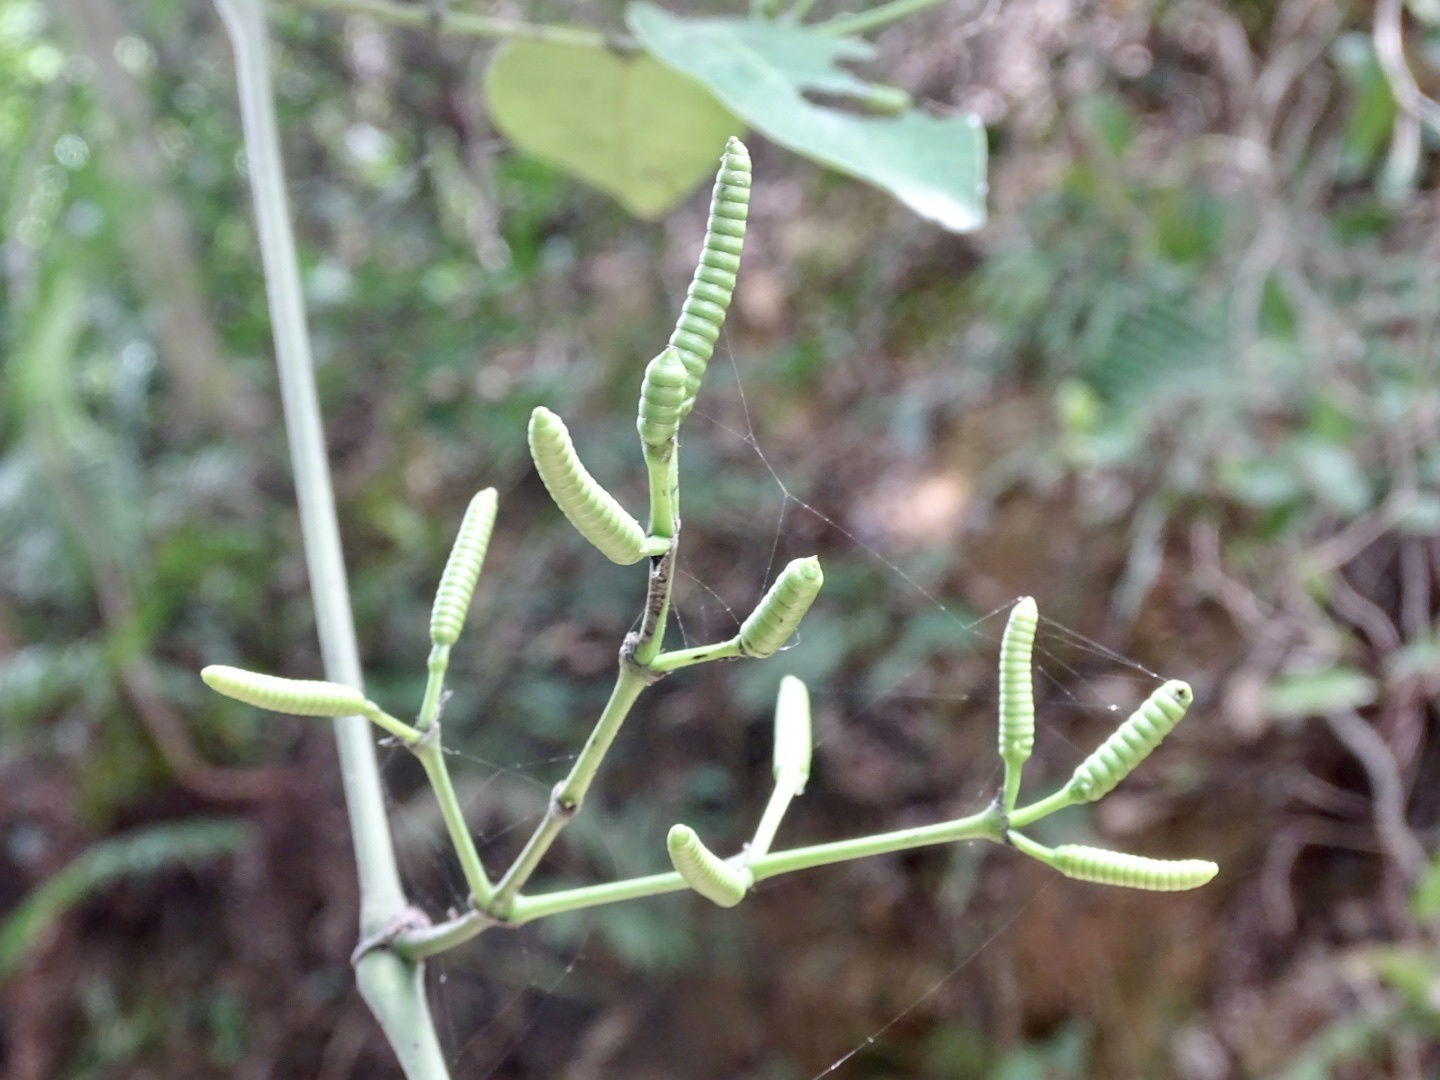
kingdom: Plantae
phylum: Tracheophyta
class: Gnetopsida
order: Gnetales
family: Gnetaceae
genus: Gnetum
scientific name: Gnetum luofuense
